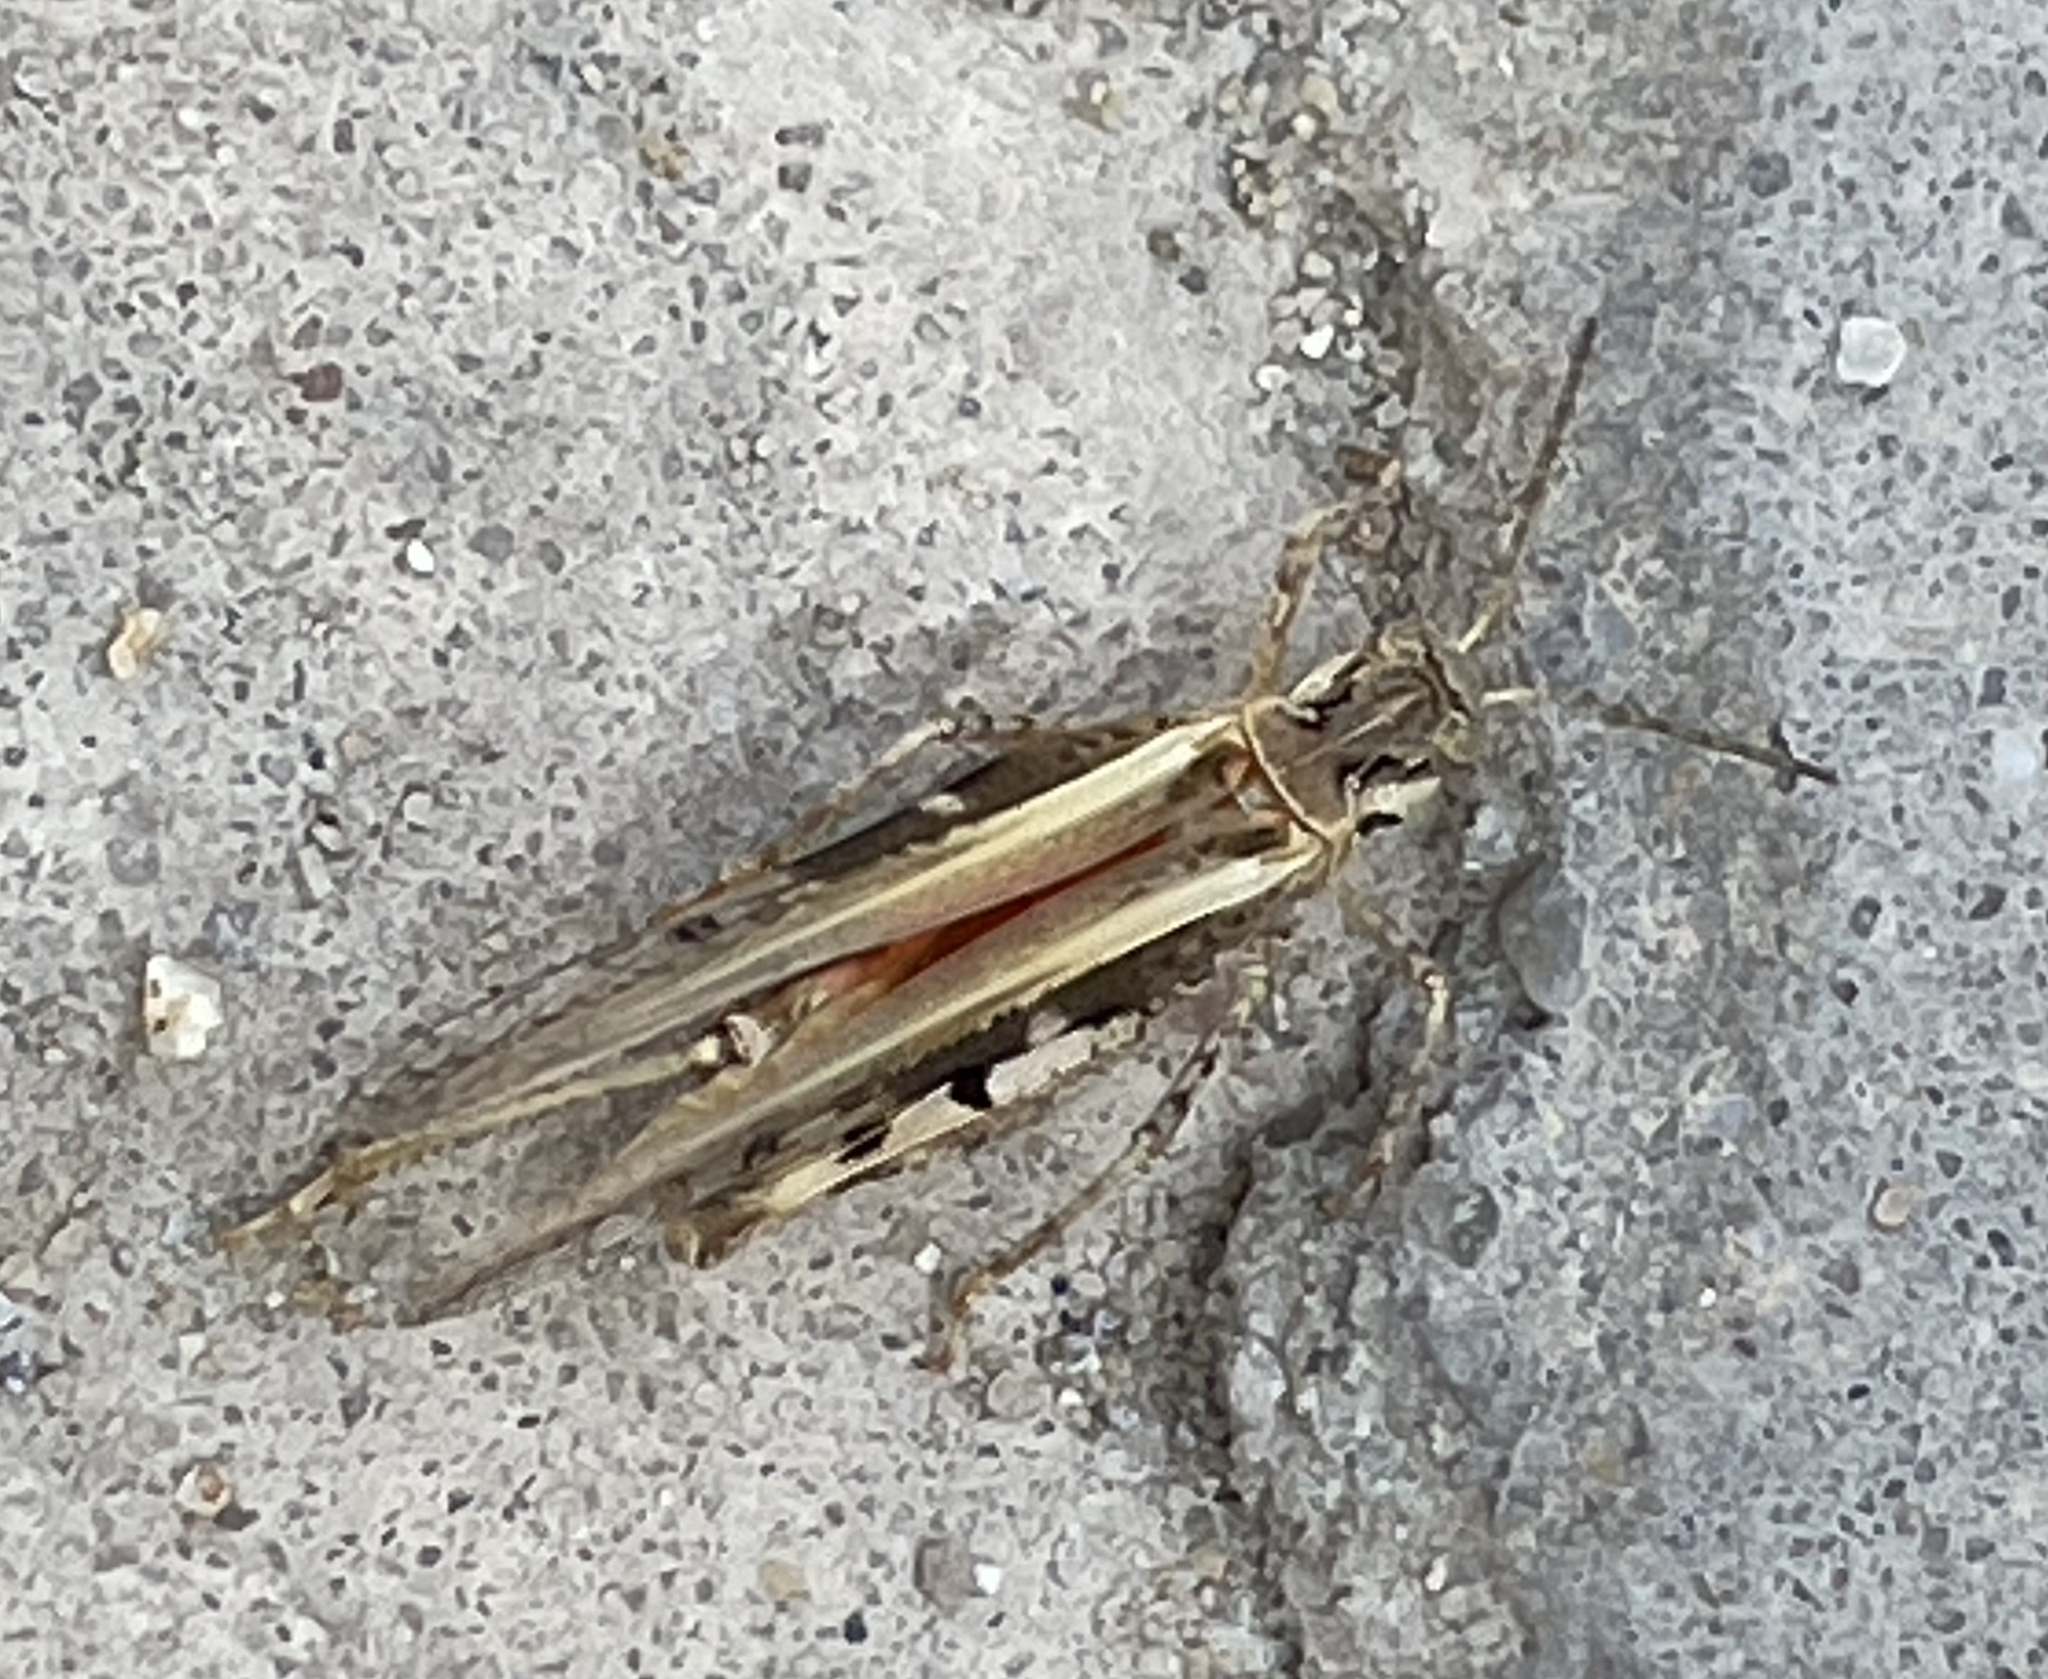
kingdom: Animalia
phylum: Arthropoda
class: Insecta
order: Orthoptera
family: Acrididae
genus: Acrotylus
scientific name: Acrotylus patruelis
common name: Slender burrowing grasshopper
